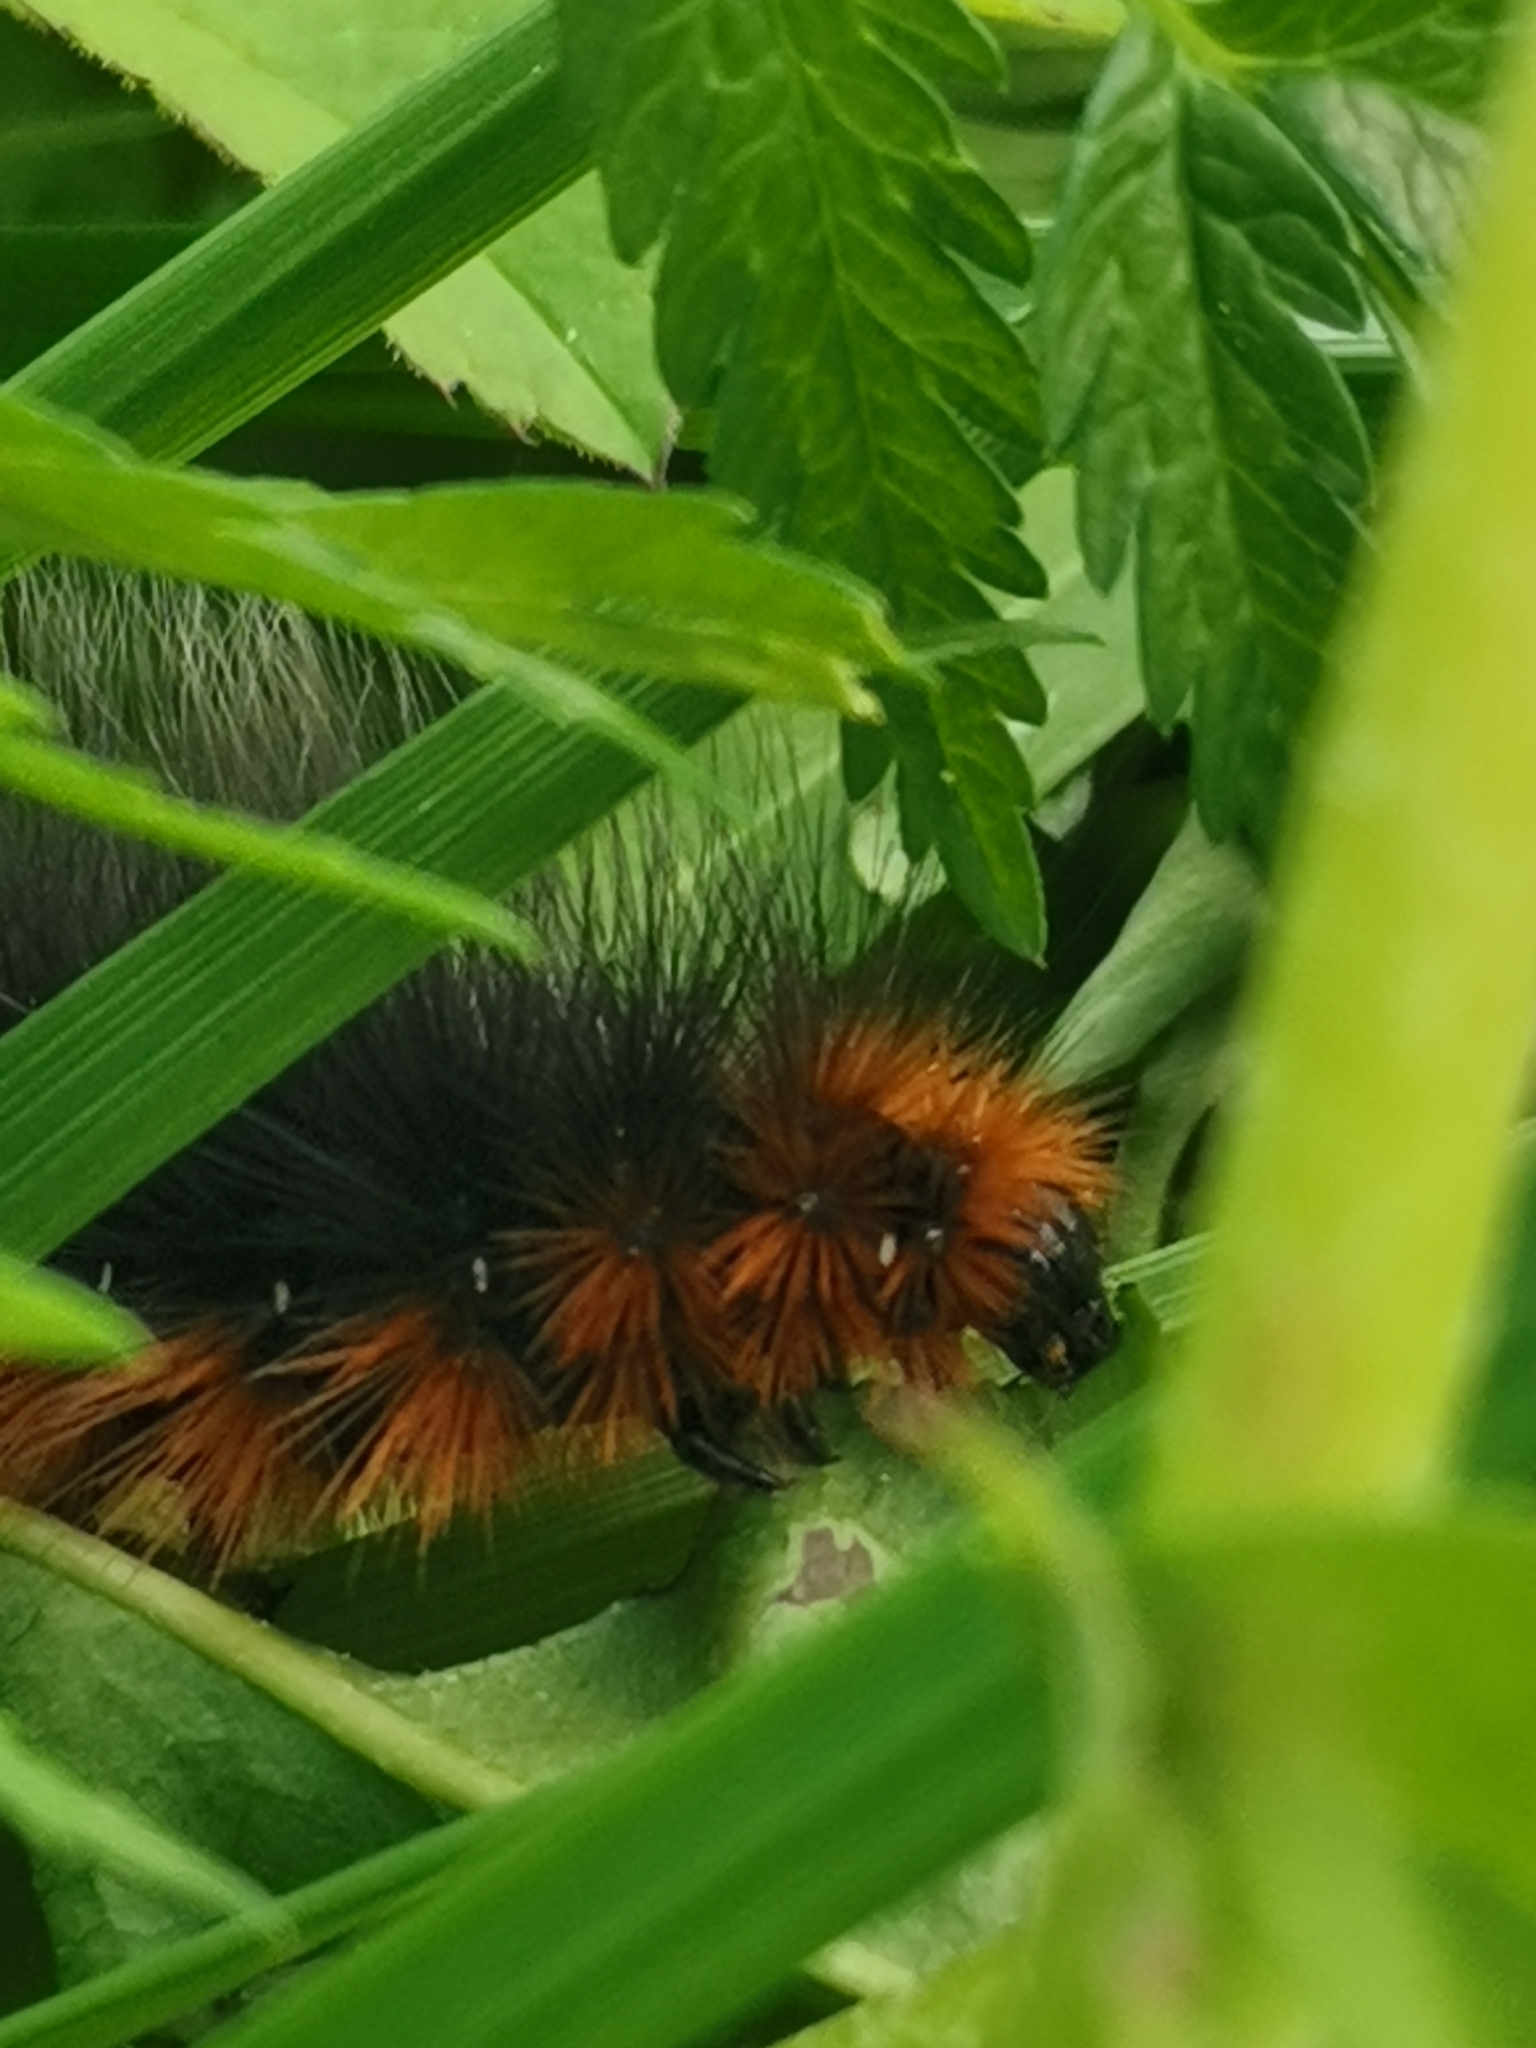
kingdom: Animalia
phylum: Arthropoda
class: Insecta
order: Lepidoptera
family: Erebidae
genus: Arctia
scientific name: Arctia caja
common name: Garden tiger
